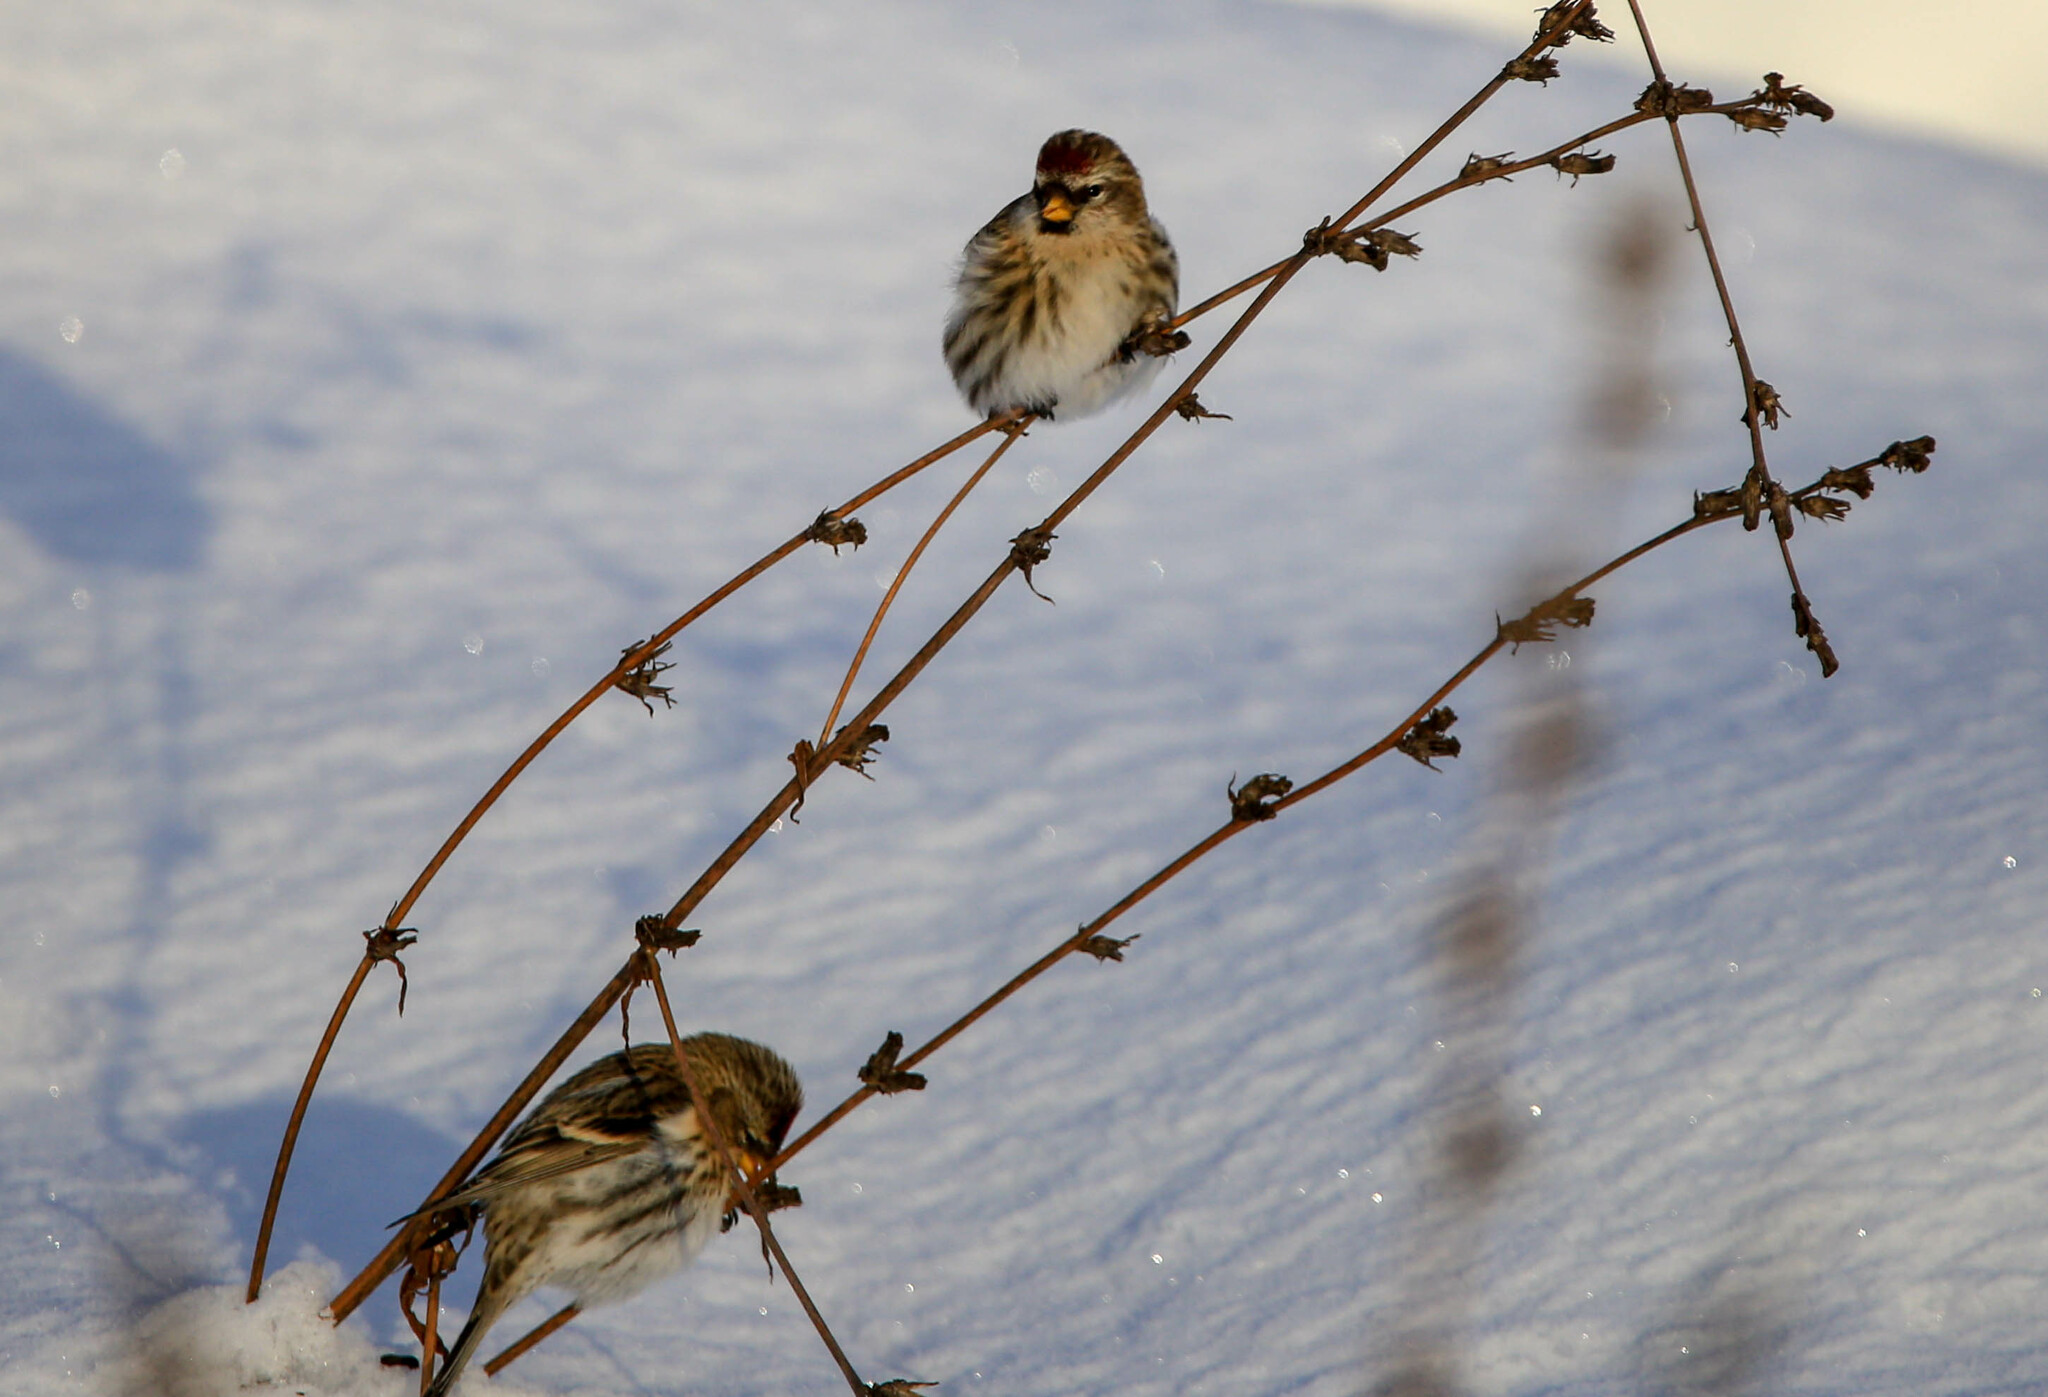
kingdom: Animalia
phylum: Chordata
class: Aves
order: Passeriformes
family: Fringillidae
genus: Acanthis
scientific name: Acanthis flammea
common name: Common redpoll
